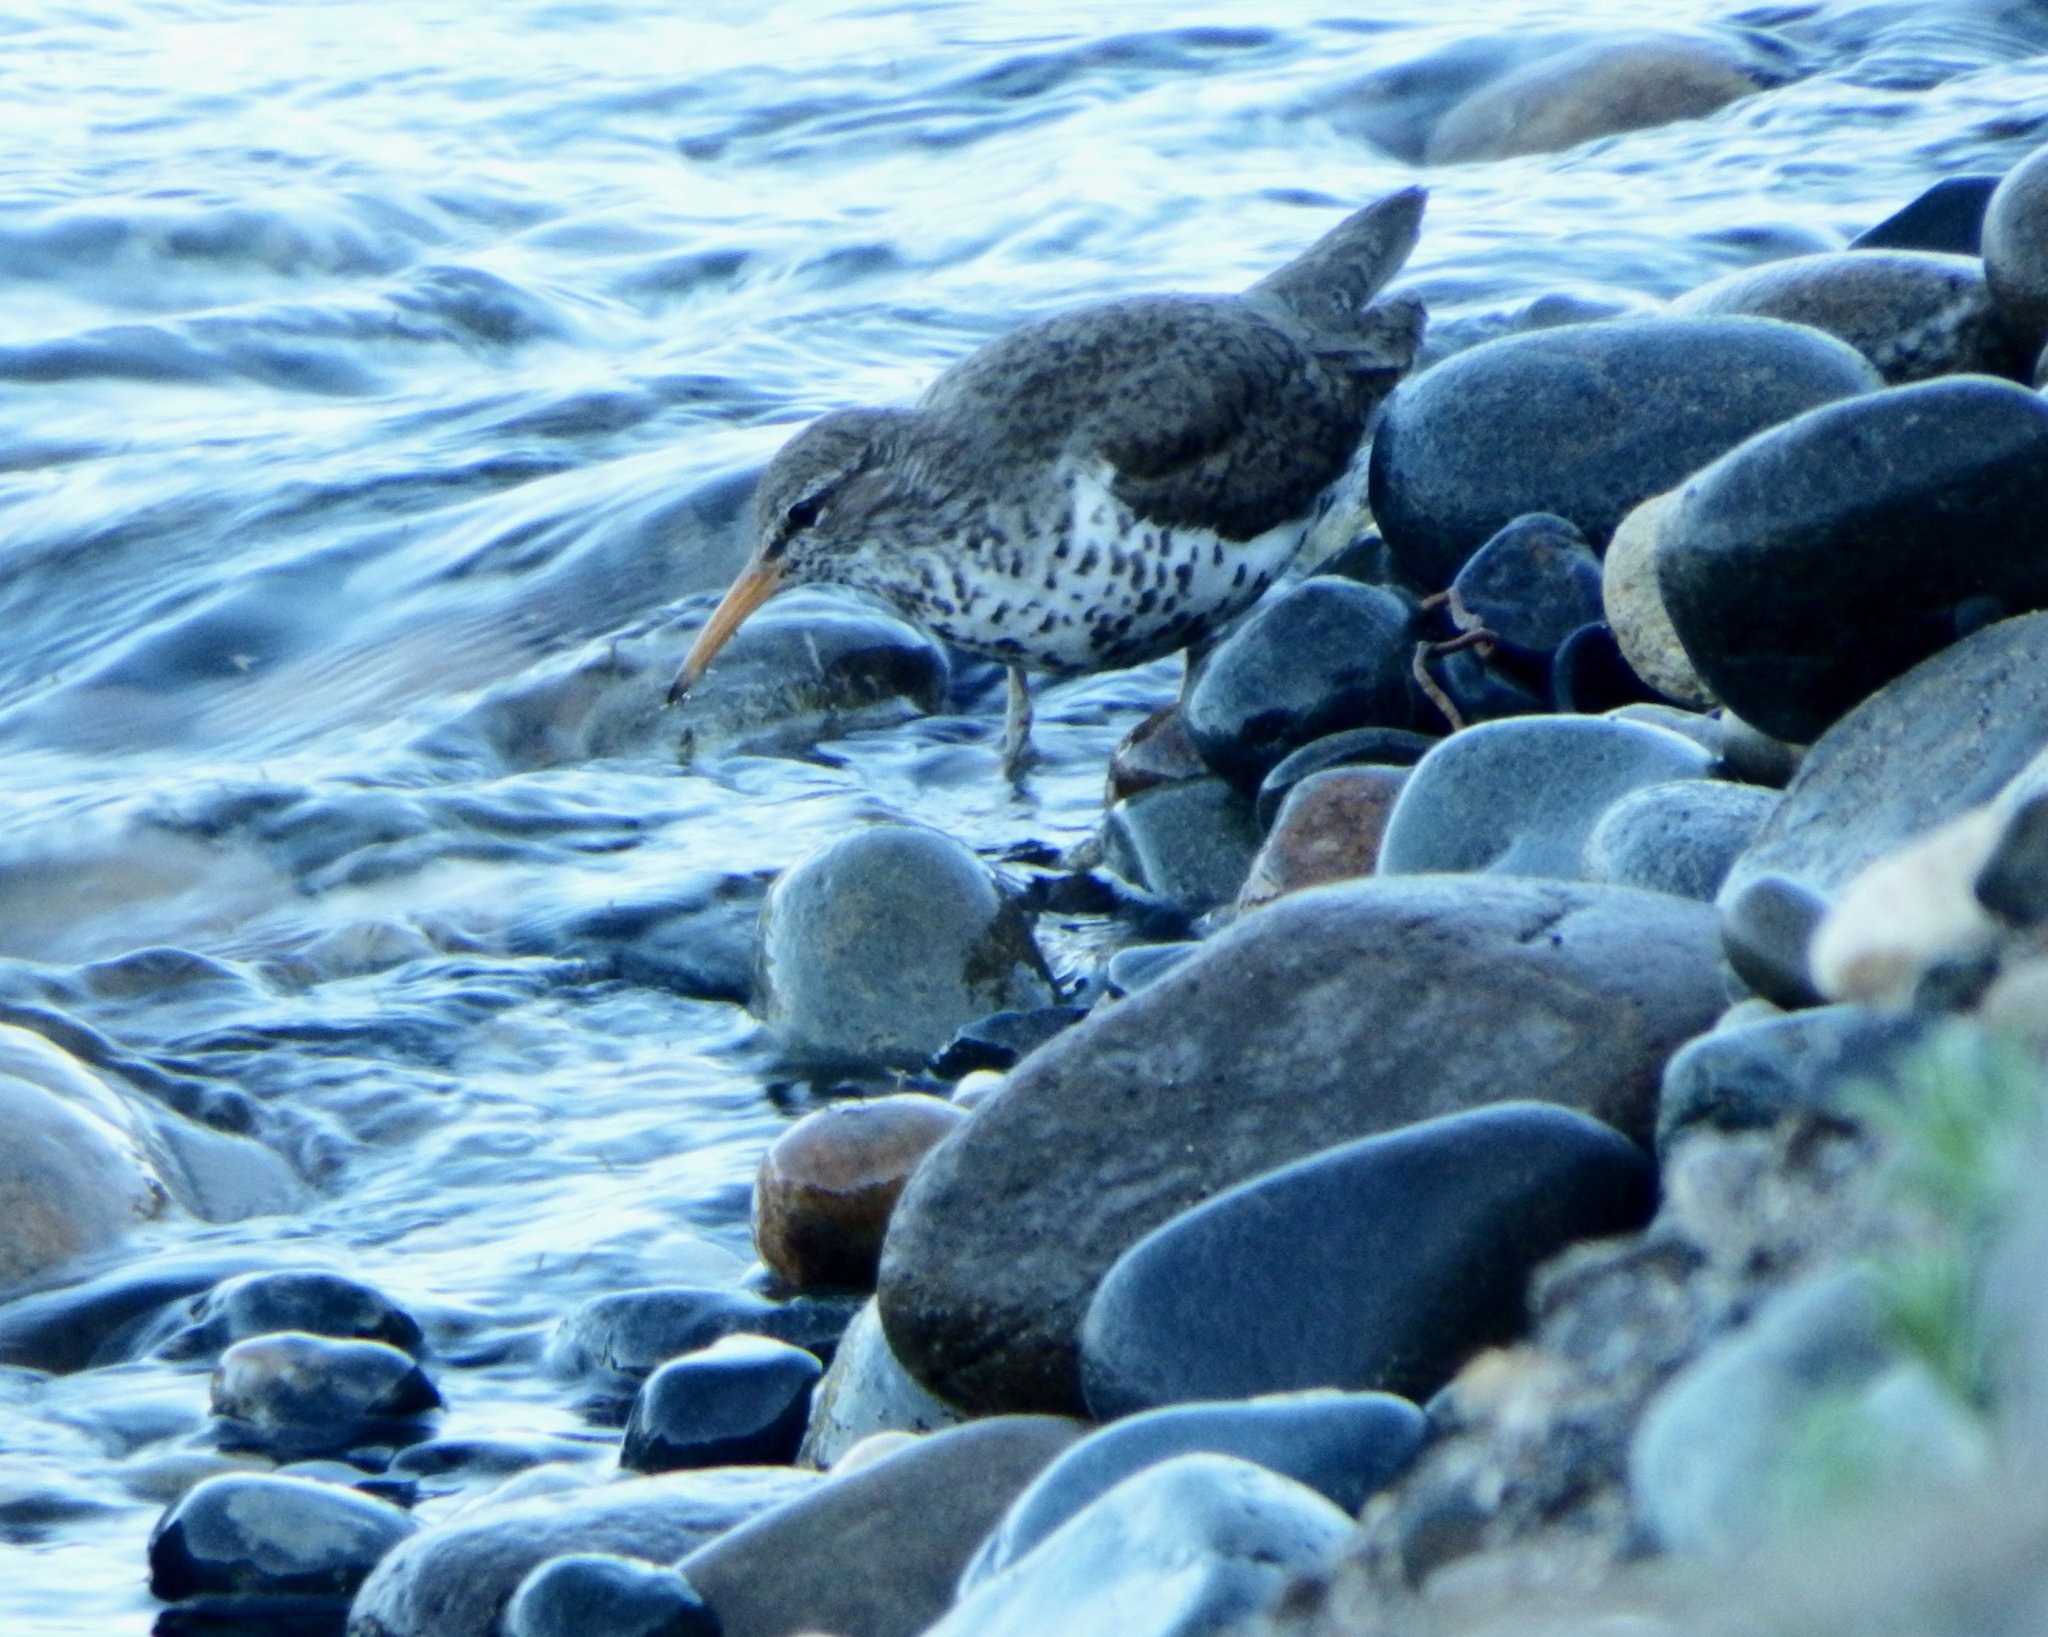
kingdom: Animalia
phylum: Chordata
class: Aves
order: Charadriiformes
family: Scolopacidae
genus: Actitis
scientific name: Actitis macularius
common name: Spotted sandpiper
